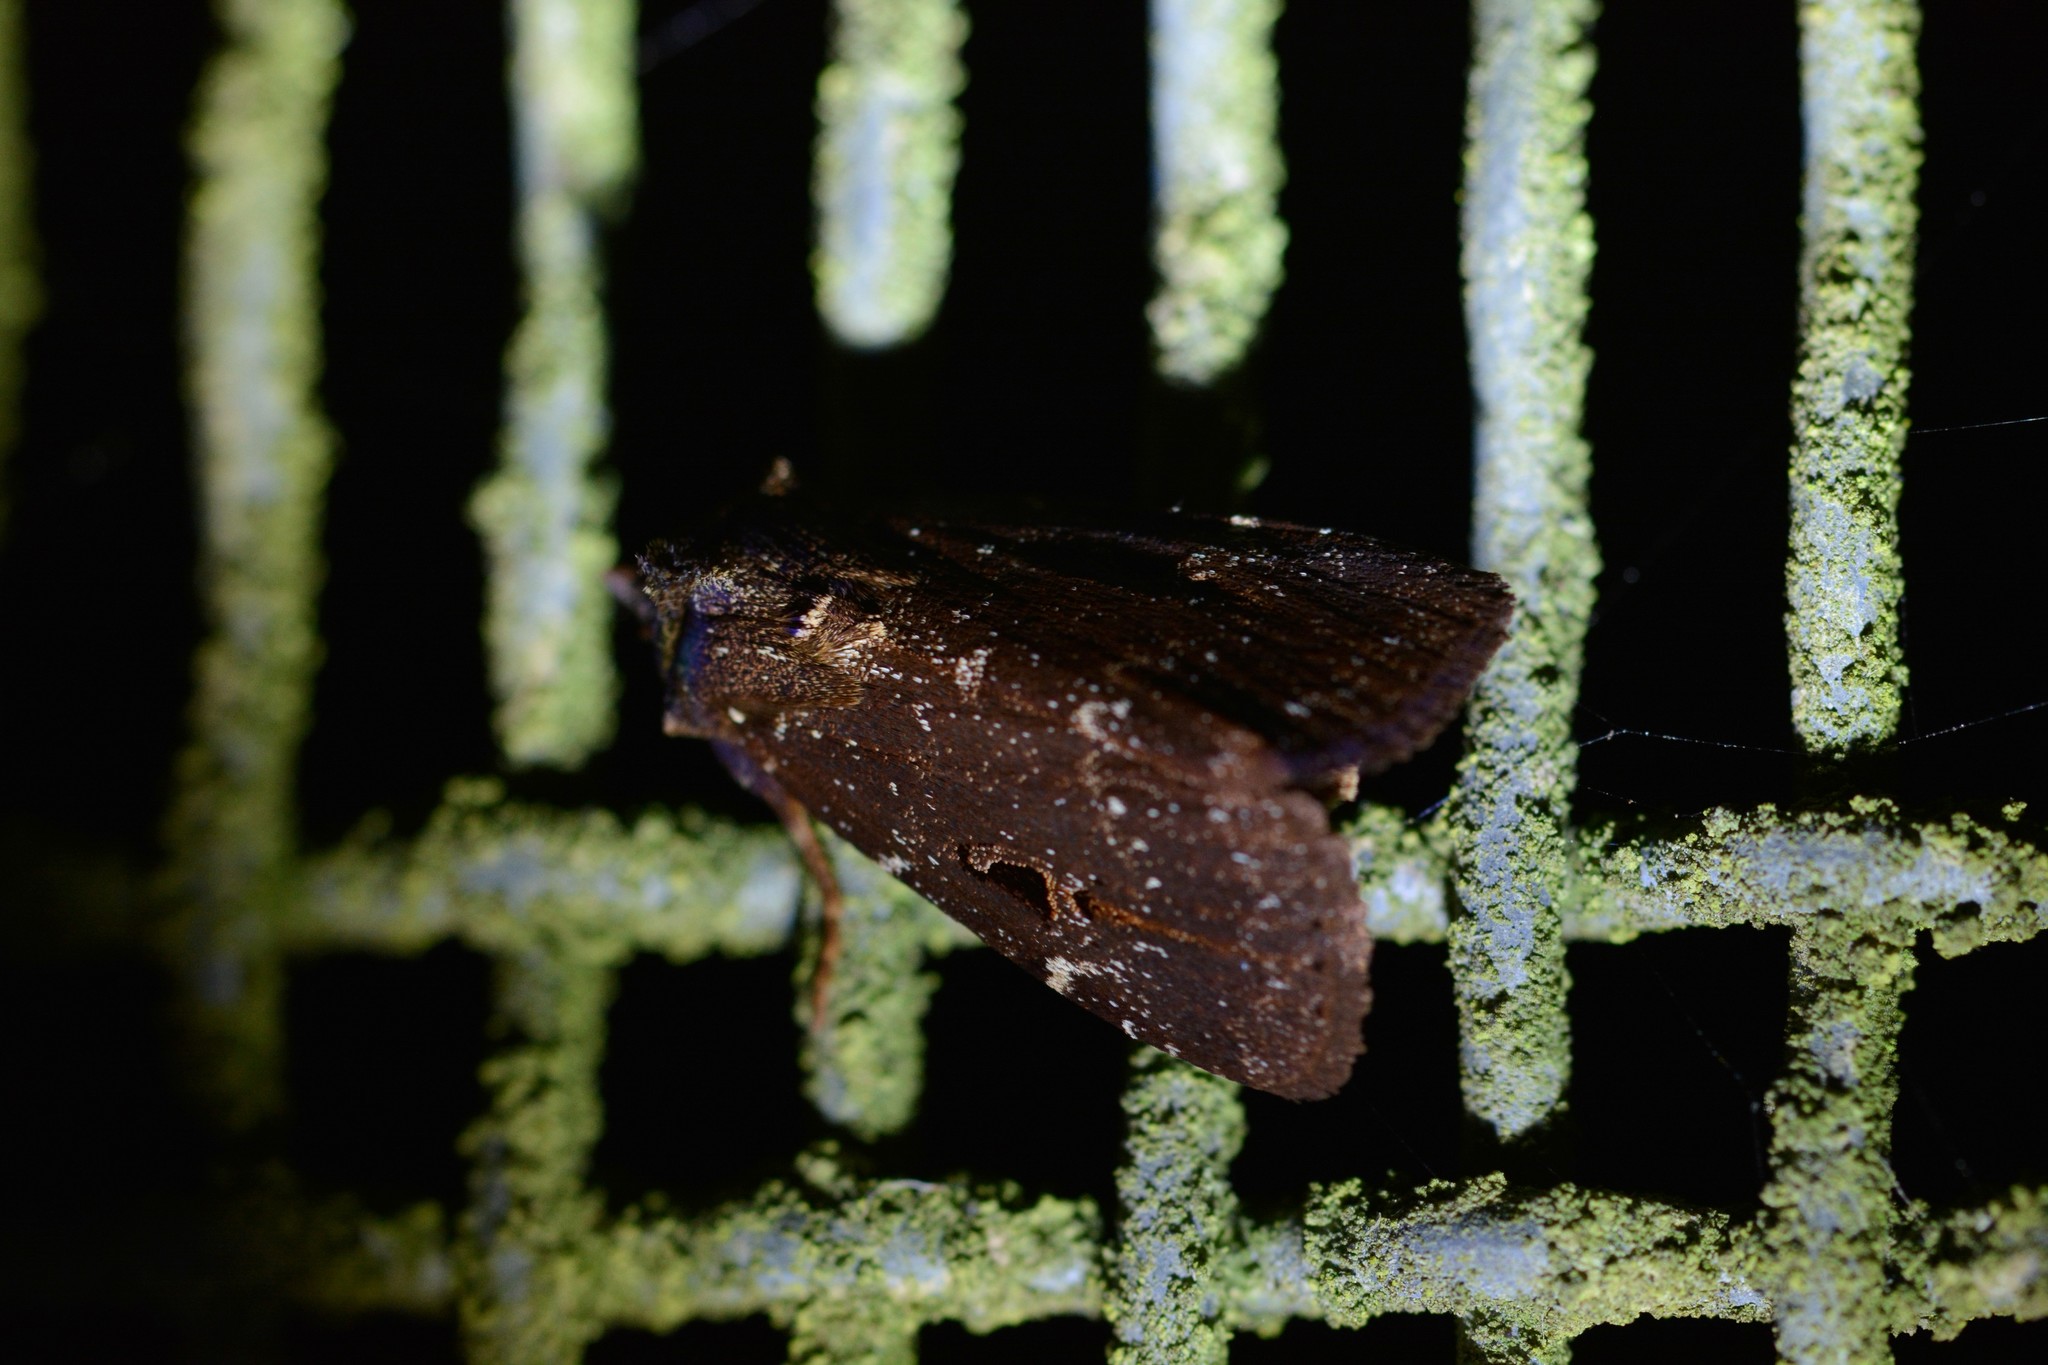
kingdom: Animalia
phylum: Arthropoda
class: Insecta
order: Lepidoptera
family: Noctuidae
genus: Austramathes
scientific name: Austramathes purpurea
